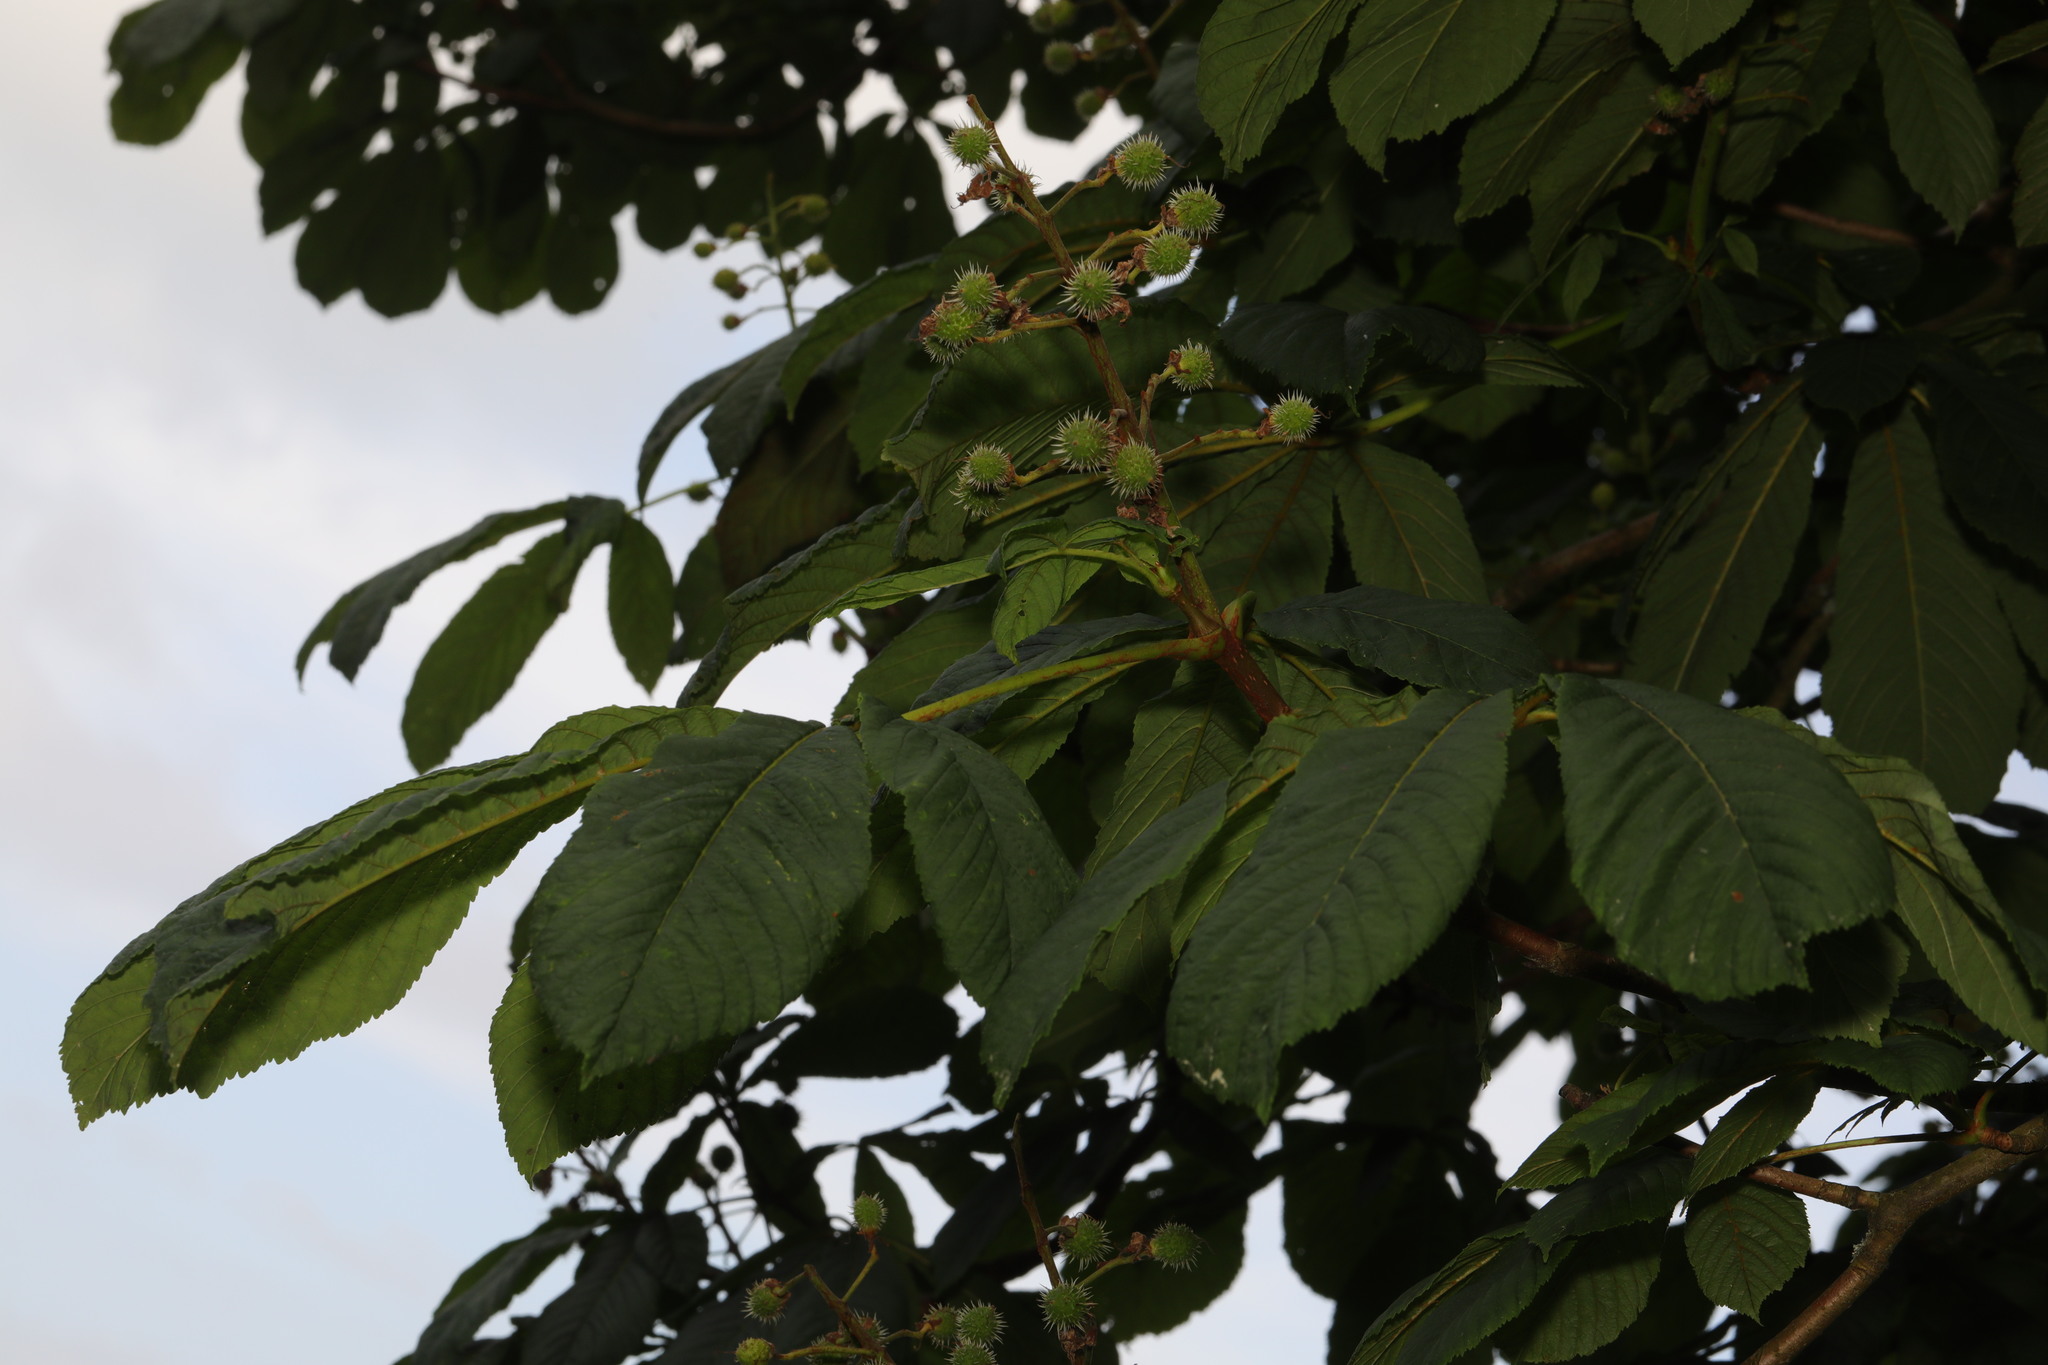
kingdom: Plantae
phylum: Tracheophyta
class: Magnoliopsida
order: Sapindales
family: Sapindaceae
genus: Aesculus
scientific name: Aesculus hippocastanum
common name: Horse-chestnut
